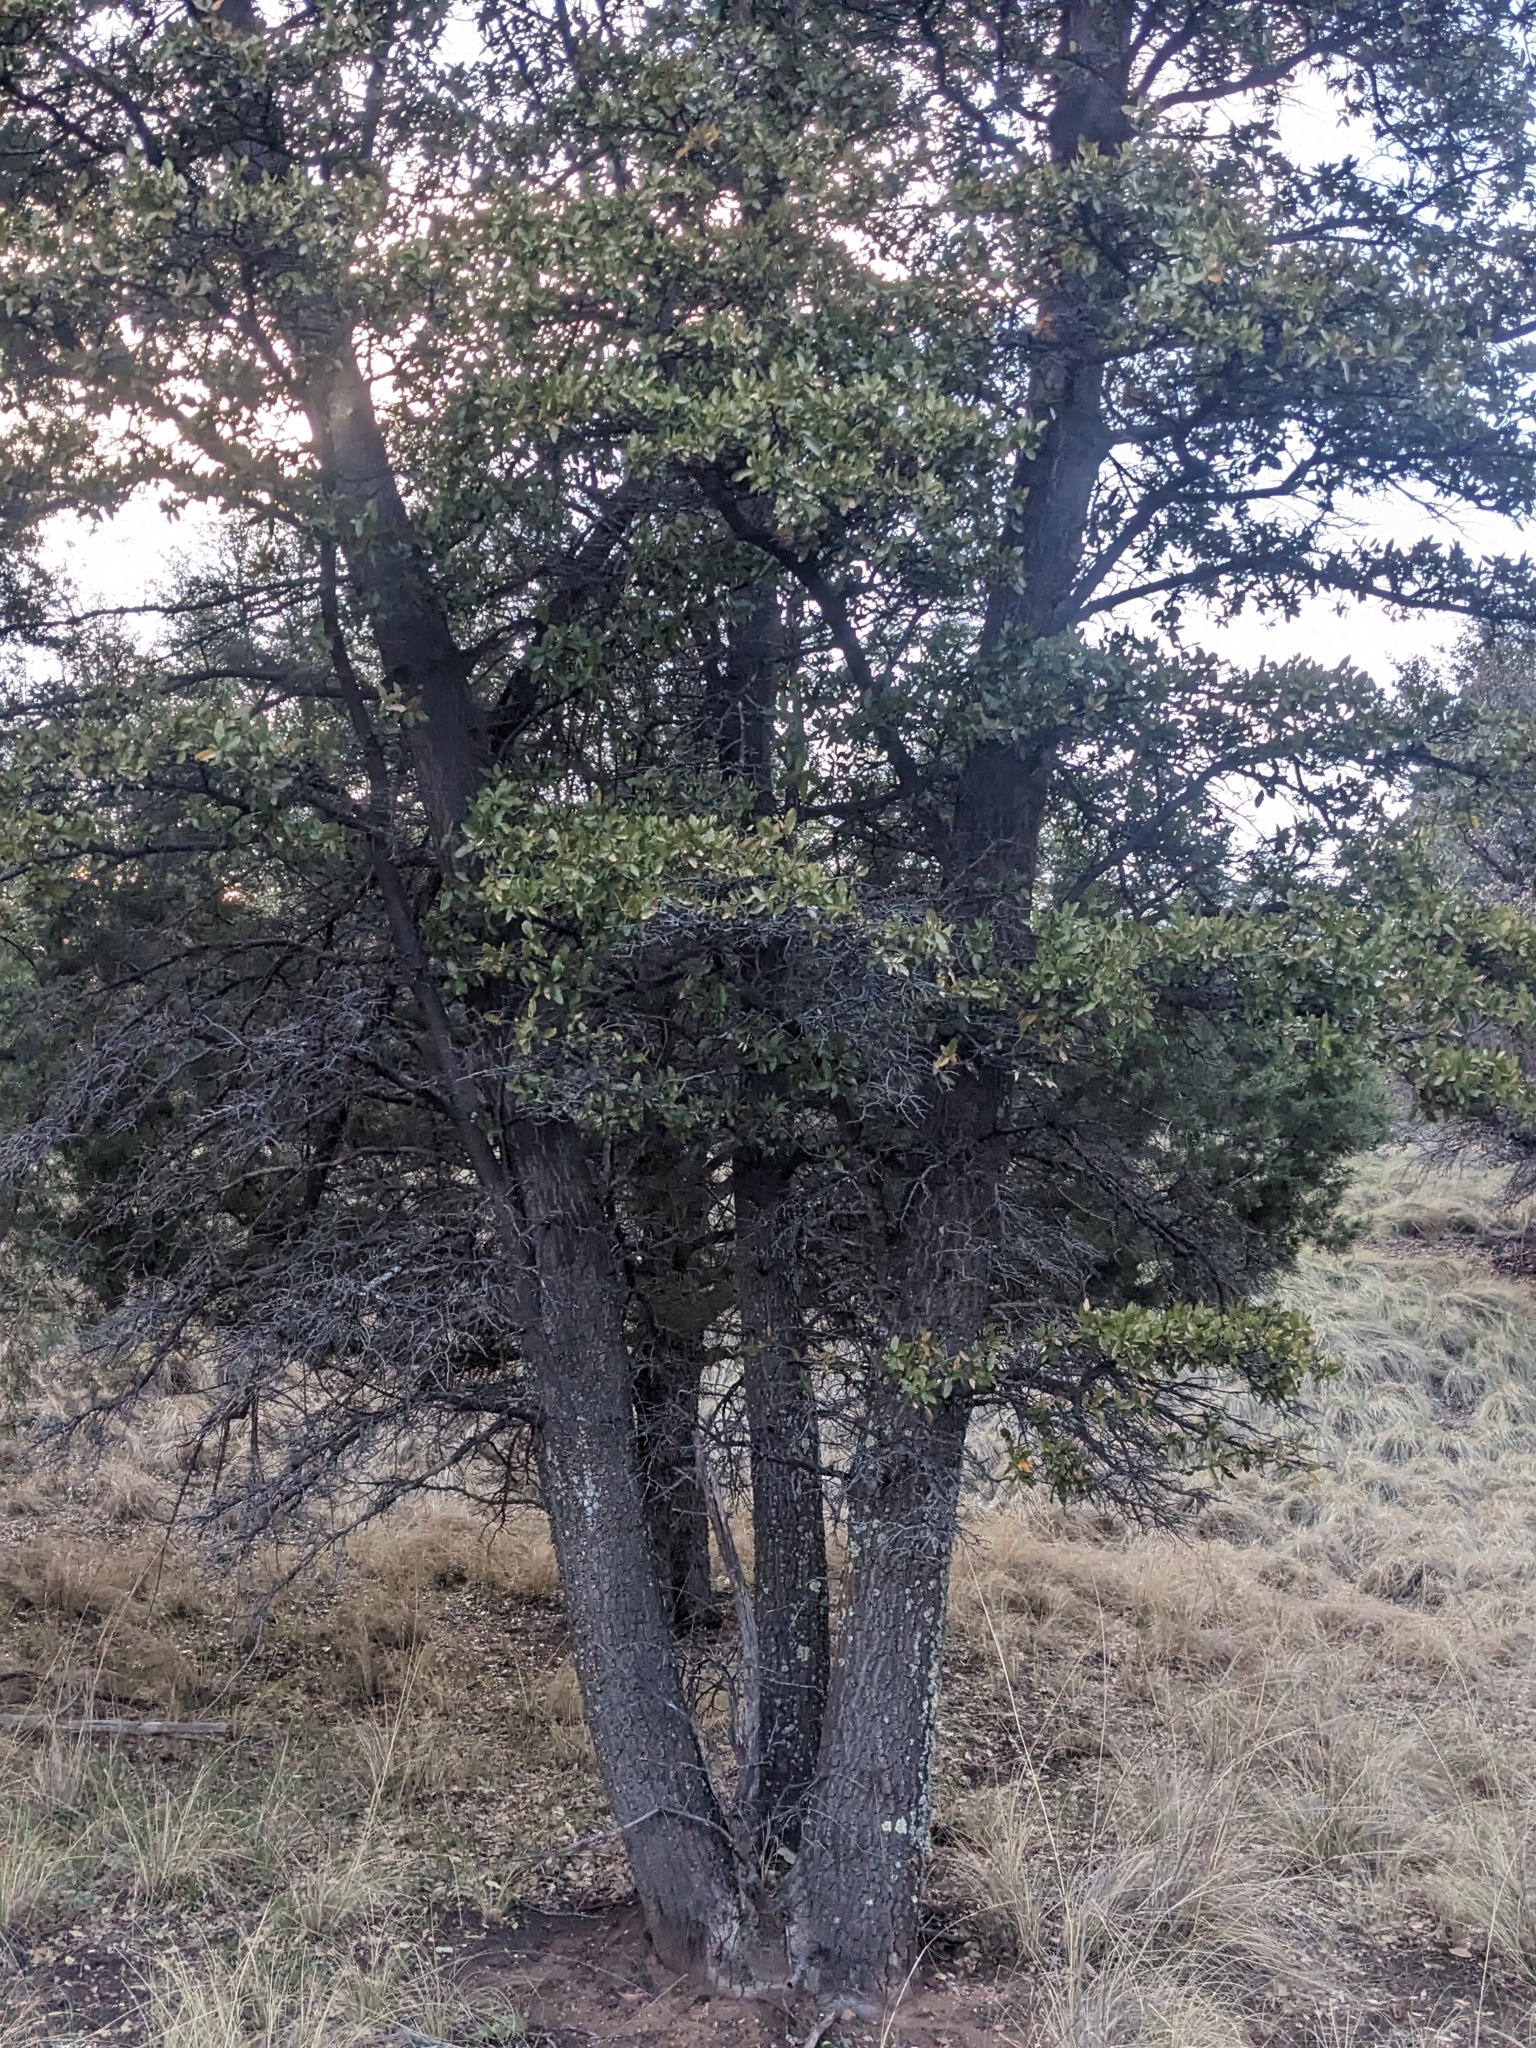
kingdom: Plantae
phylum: Tracheophyta
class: Magnoliopsida
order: Fagales
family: Fagaceae
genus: Quercus
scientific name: Quercus emoryi
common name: Emory oak
